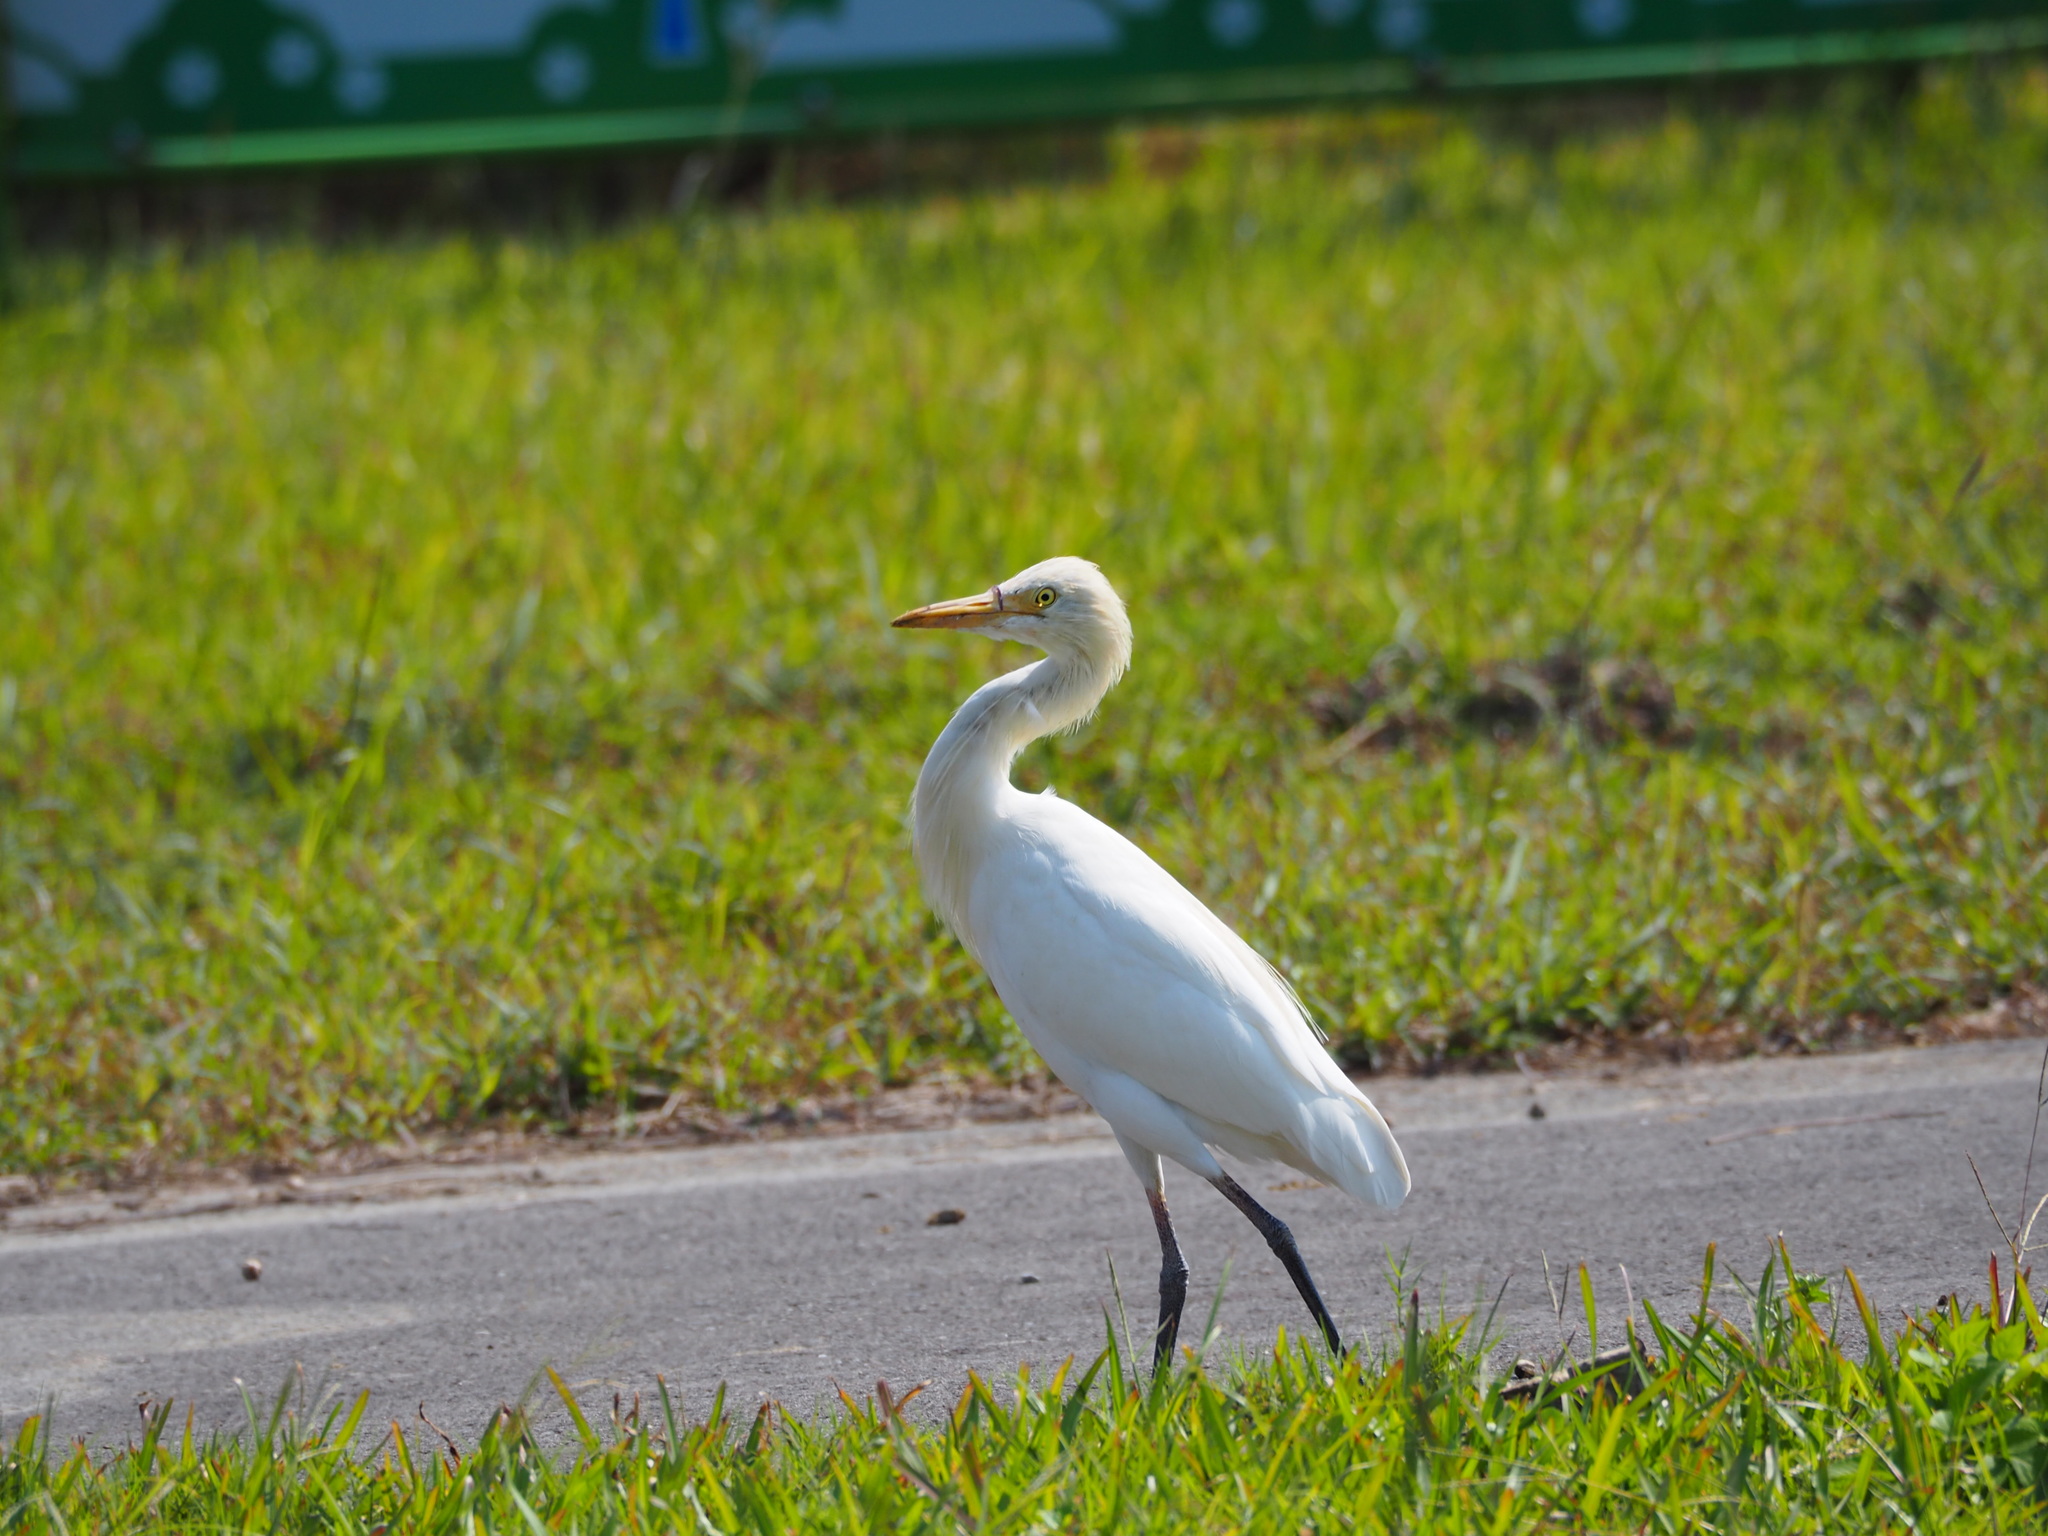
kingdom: Animalia
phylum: Chordata
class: Aves
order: Pelecaniformes
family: Ardeidae
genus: Bubulcus
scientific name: Bubulcus coromandus
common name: Eastern cattle egret
